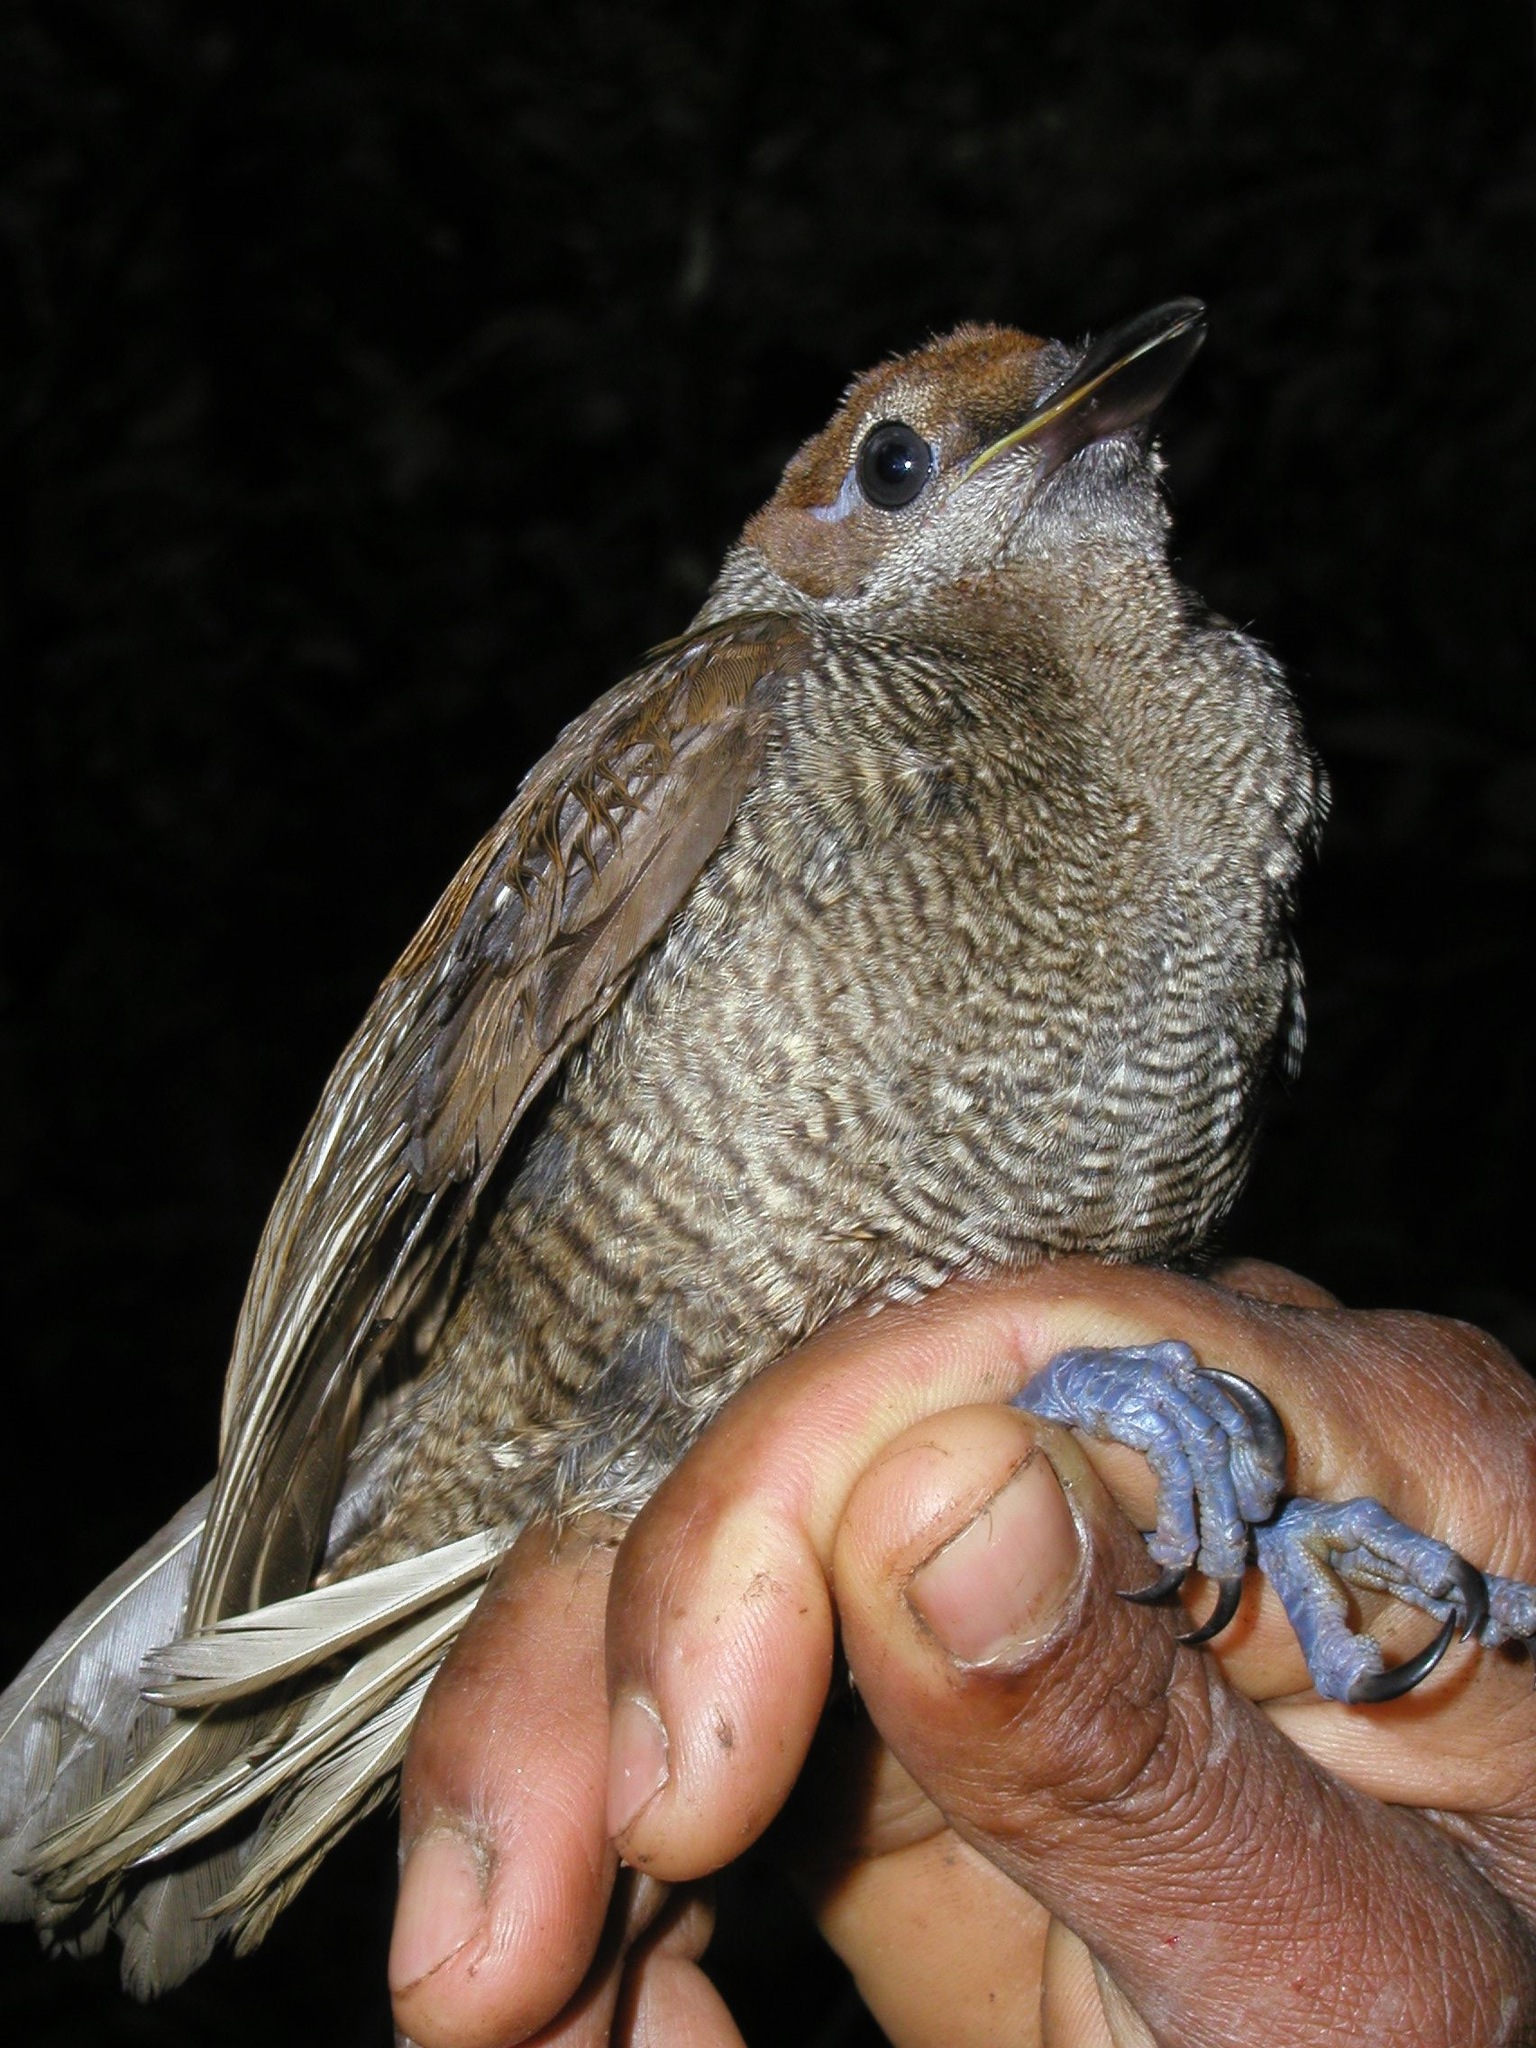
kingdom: Animalia
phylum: Chordata
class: Aves
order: Passeriformes
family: Paradisaeidae
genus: Diphyllodes
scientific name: Diphyllodes magnificus
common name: Magnificent bird-of-paradise
